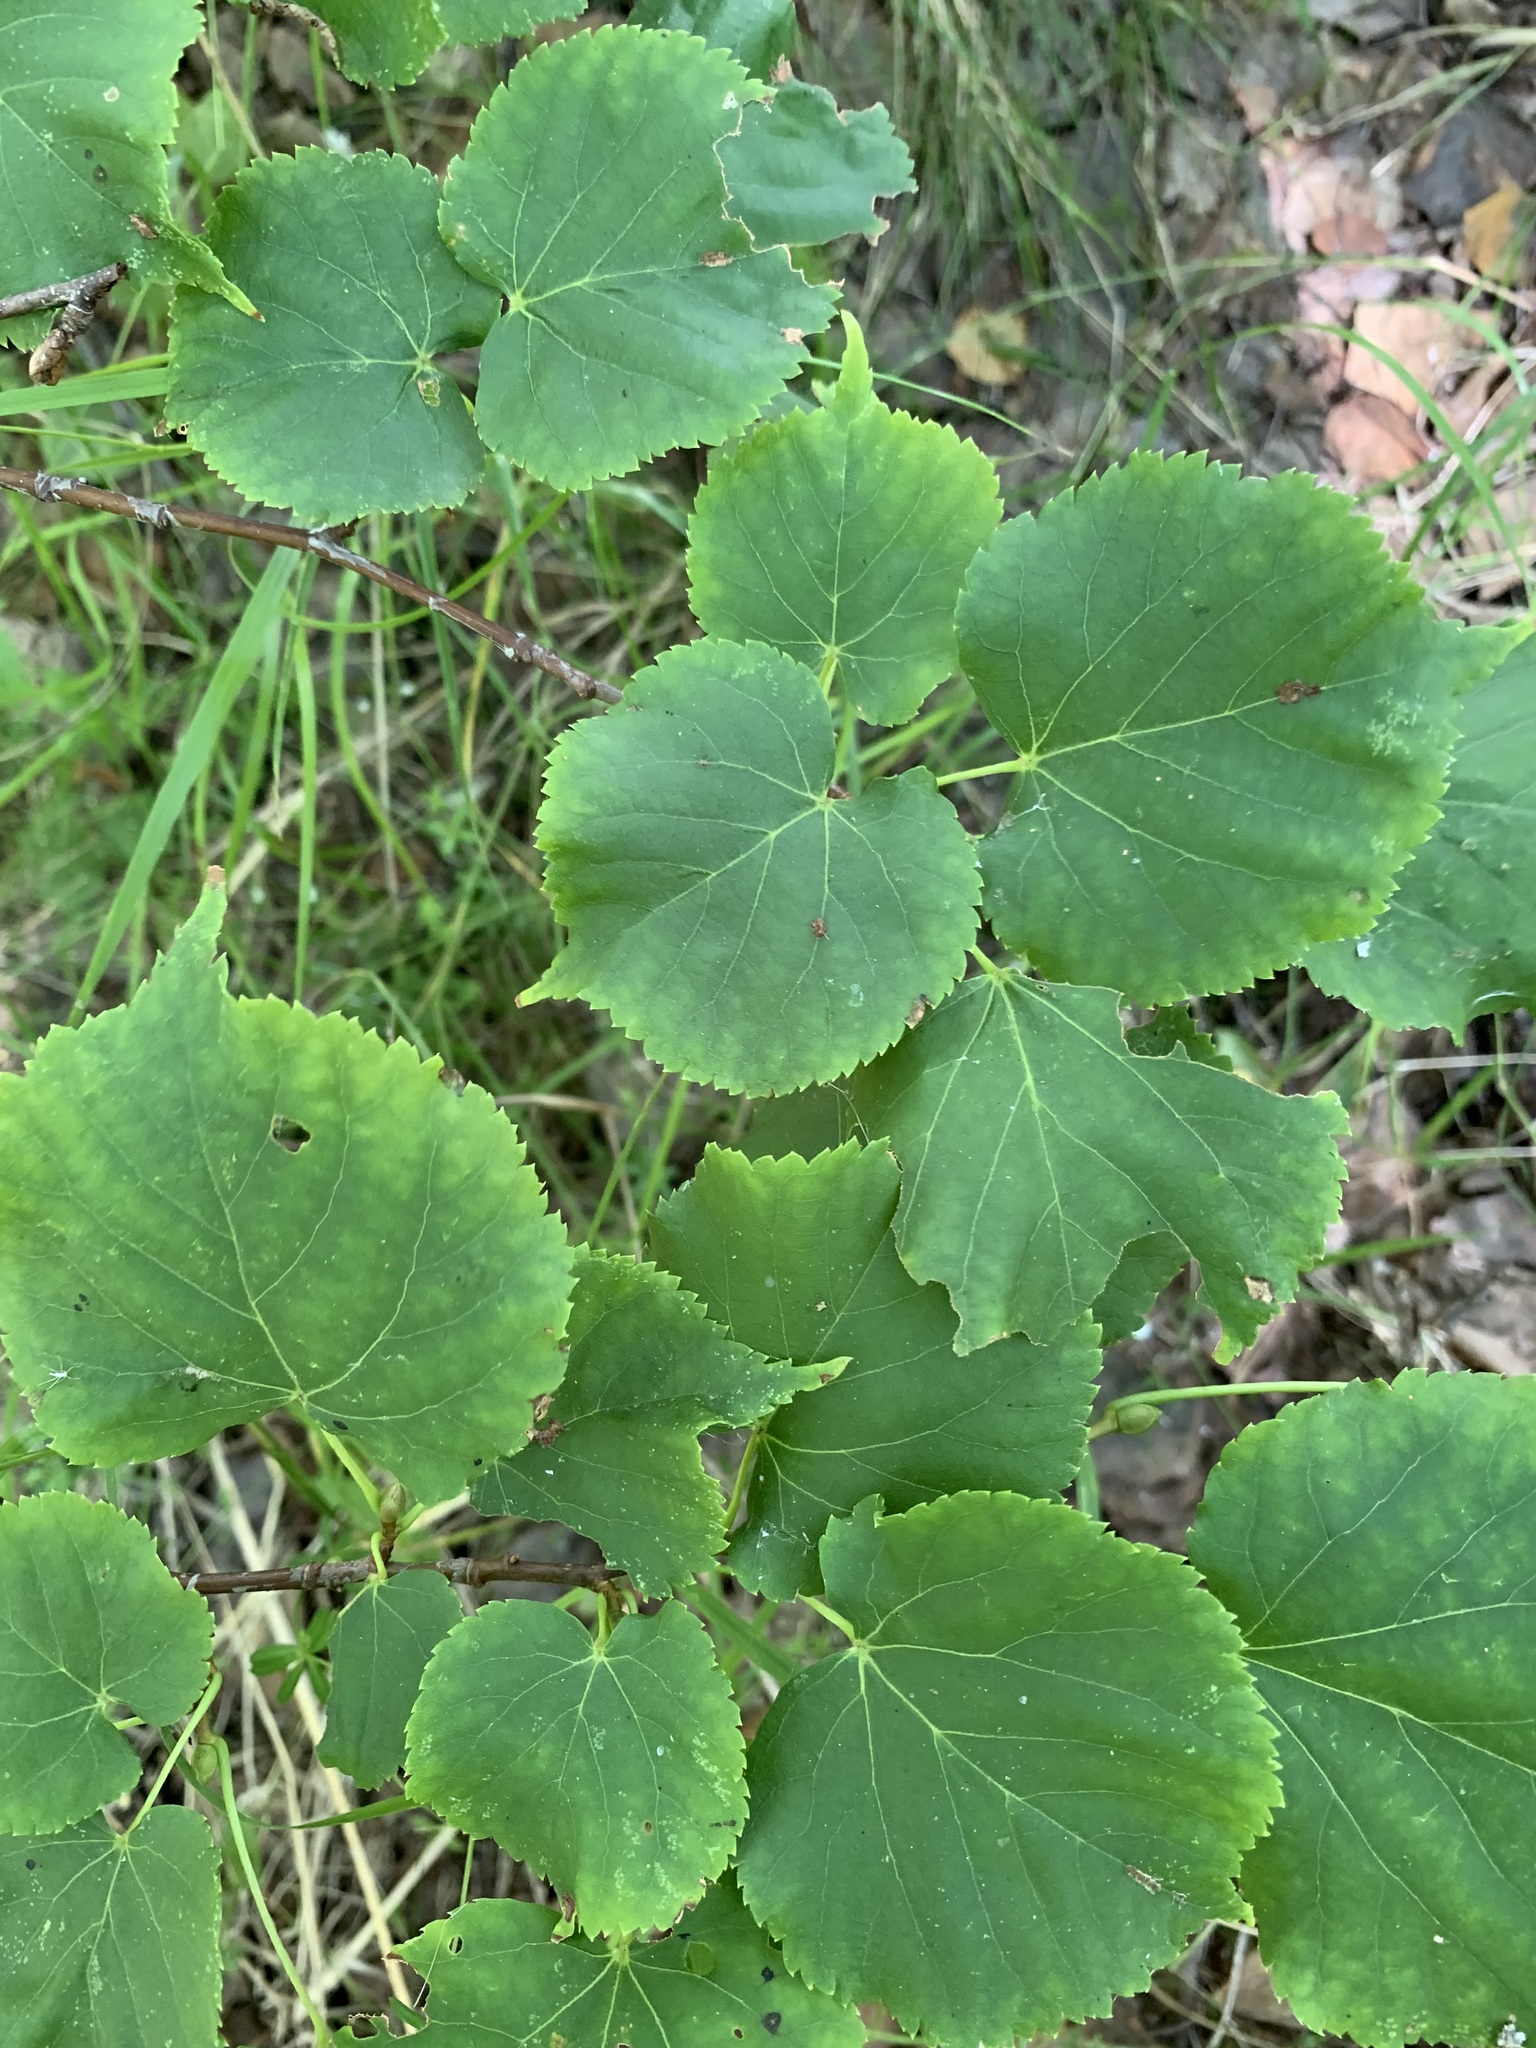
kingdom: Plantae
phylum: Tracheophyta
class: Magnoliopsida
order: Malvales
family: Malvaceae
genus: Tilia
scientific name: Tilia cordata
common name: Small-leaved lime
